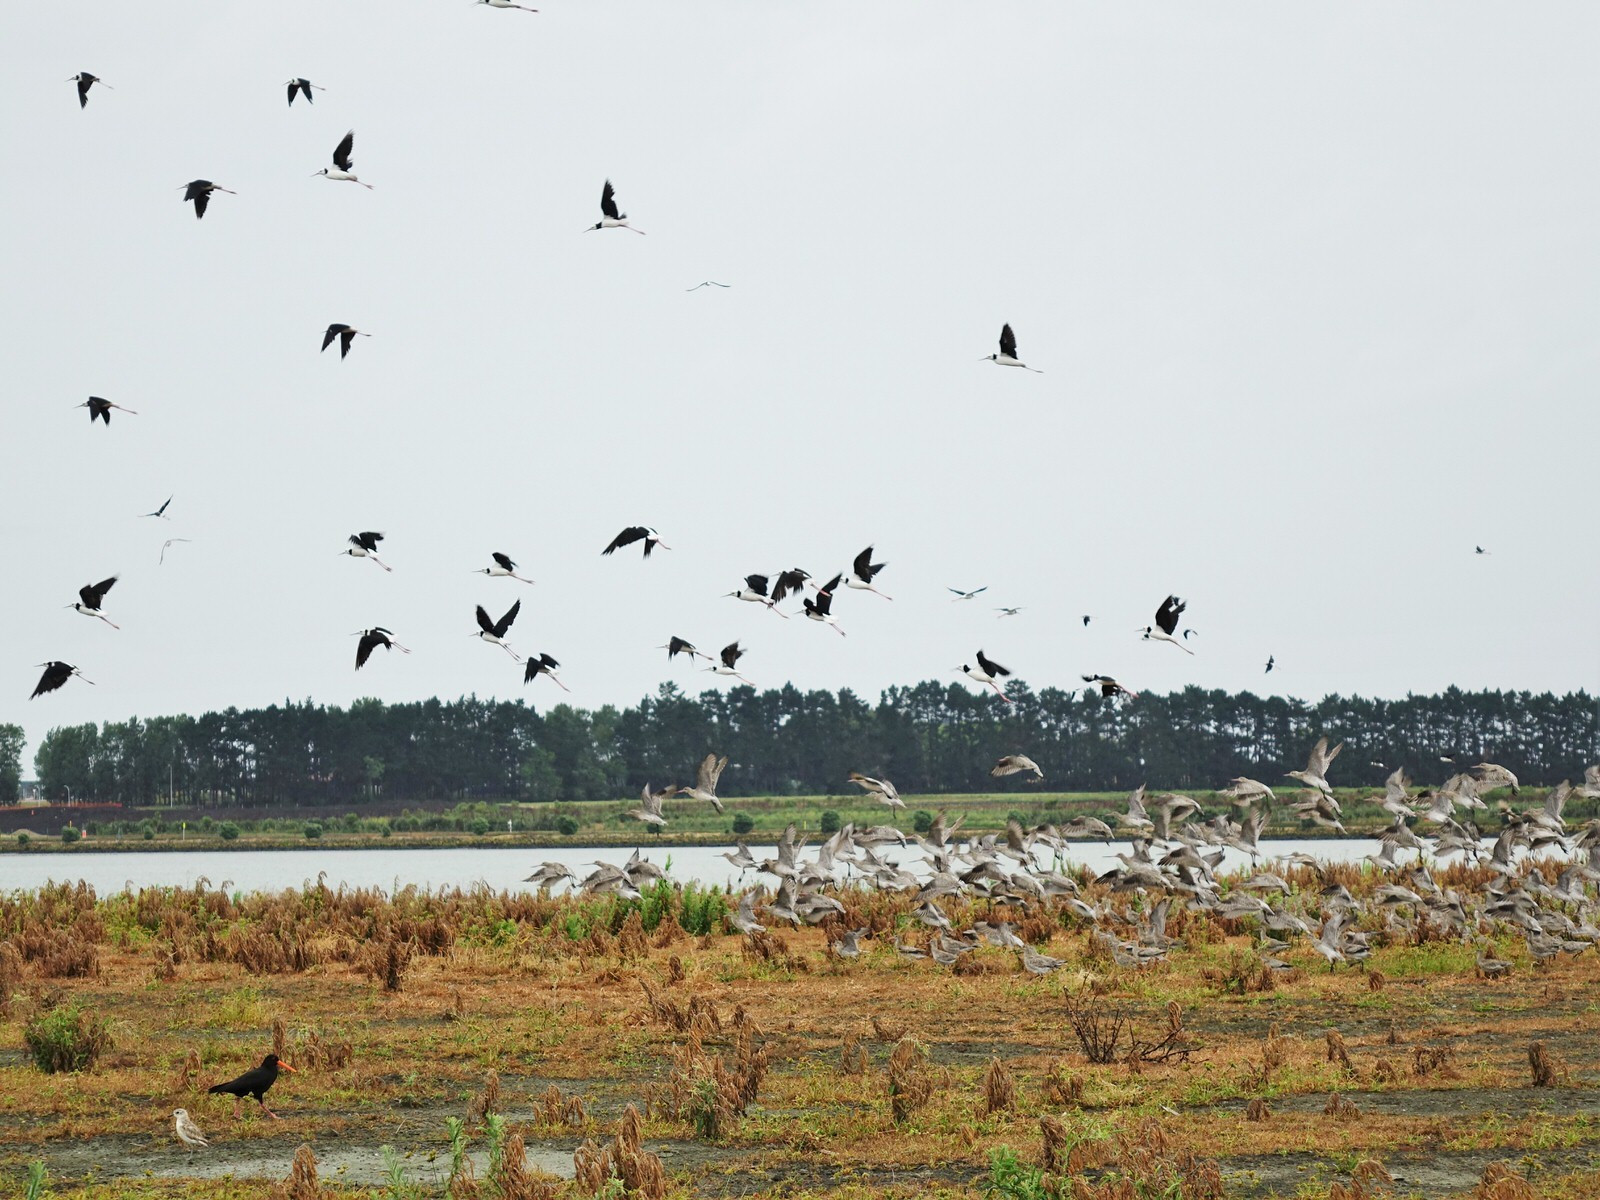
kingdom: Animalia
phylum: Chordata
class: Aves
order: Charadriiformes
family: Recurvirostridae
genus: Himantopus
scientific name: Himantopus leucocephalus
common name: White-headed stilt
